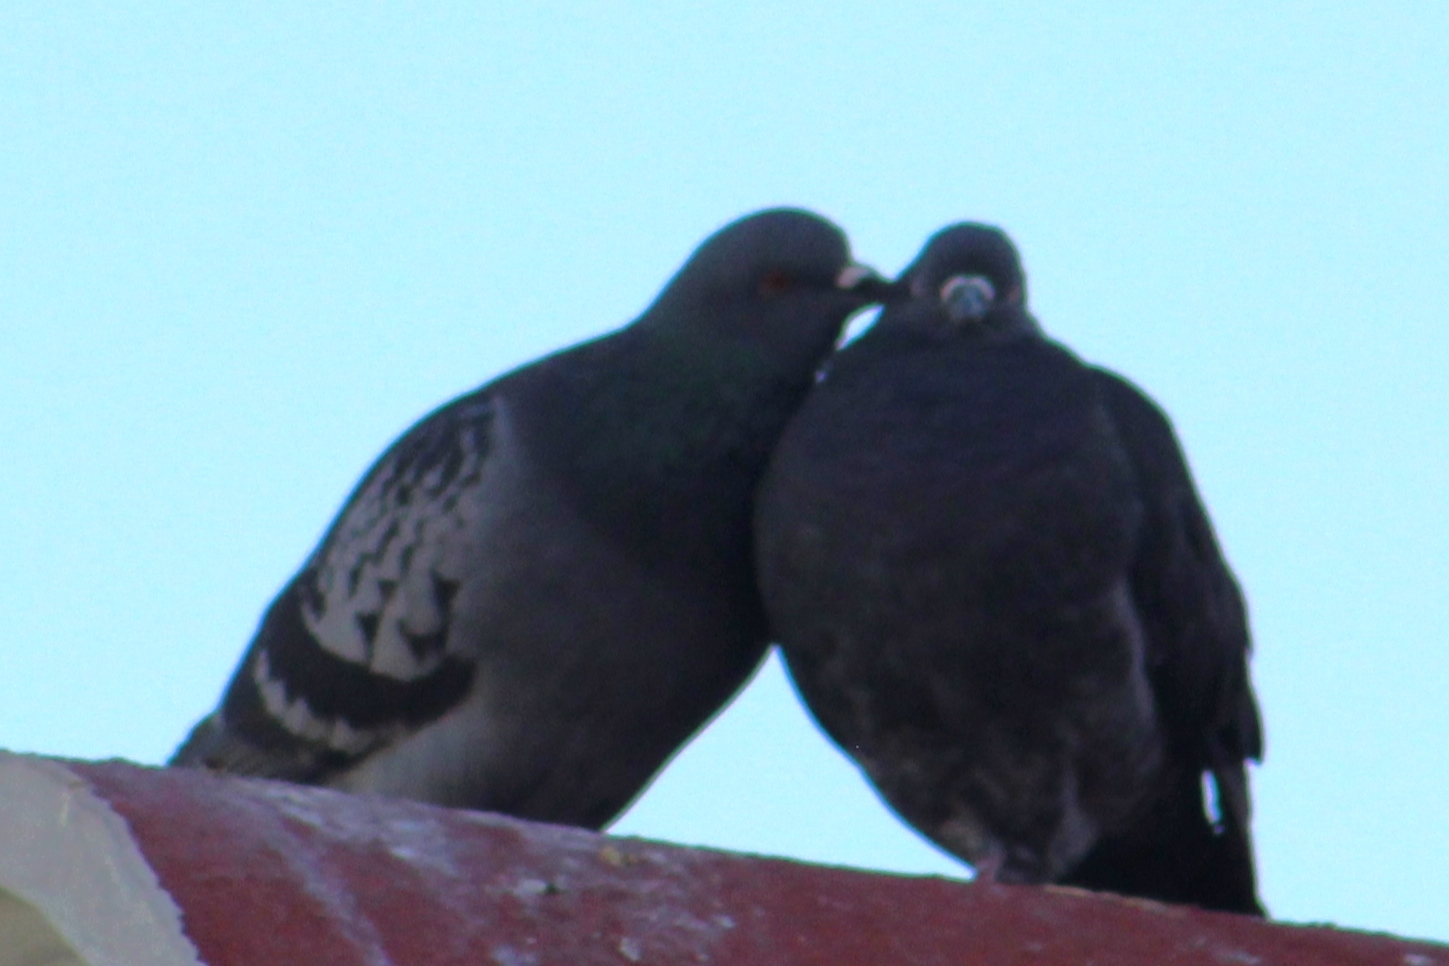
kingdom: Animalia
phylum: Chordata
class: Aves
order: Columbiformes
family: Columbidae
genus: Columba
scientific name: Columba livia
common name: Rock pigeon
